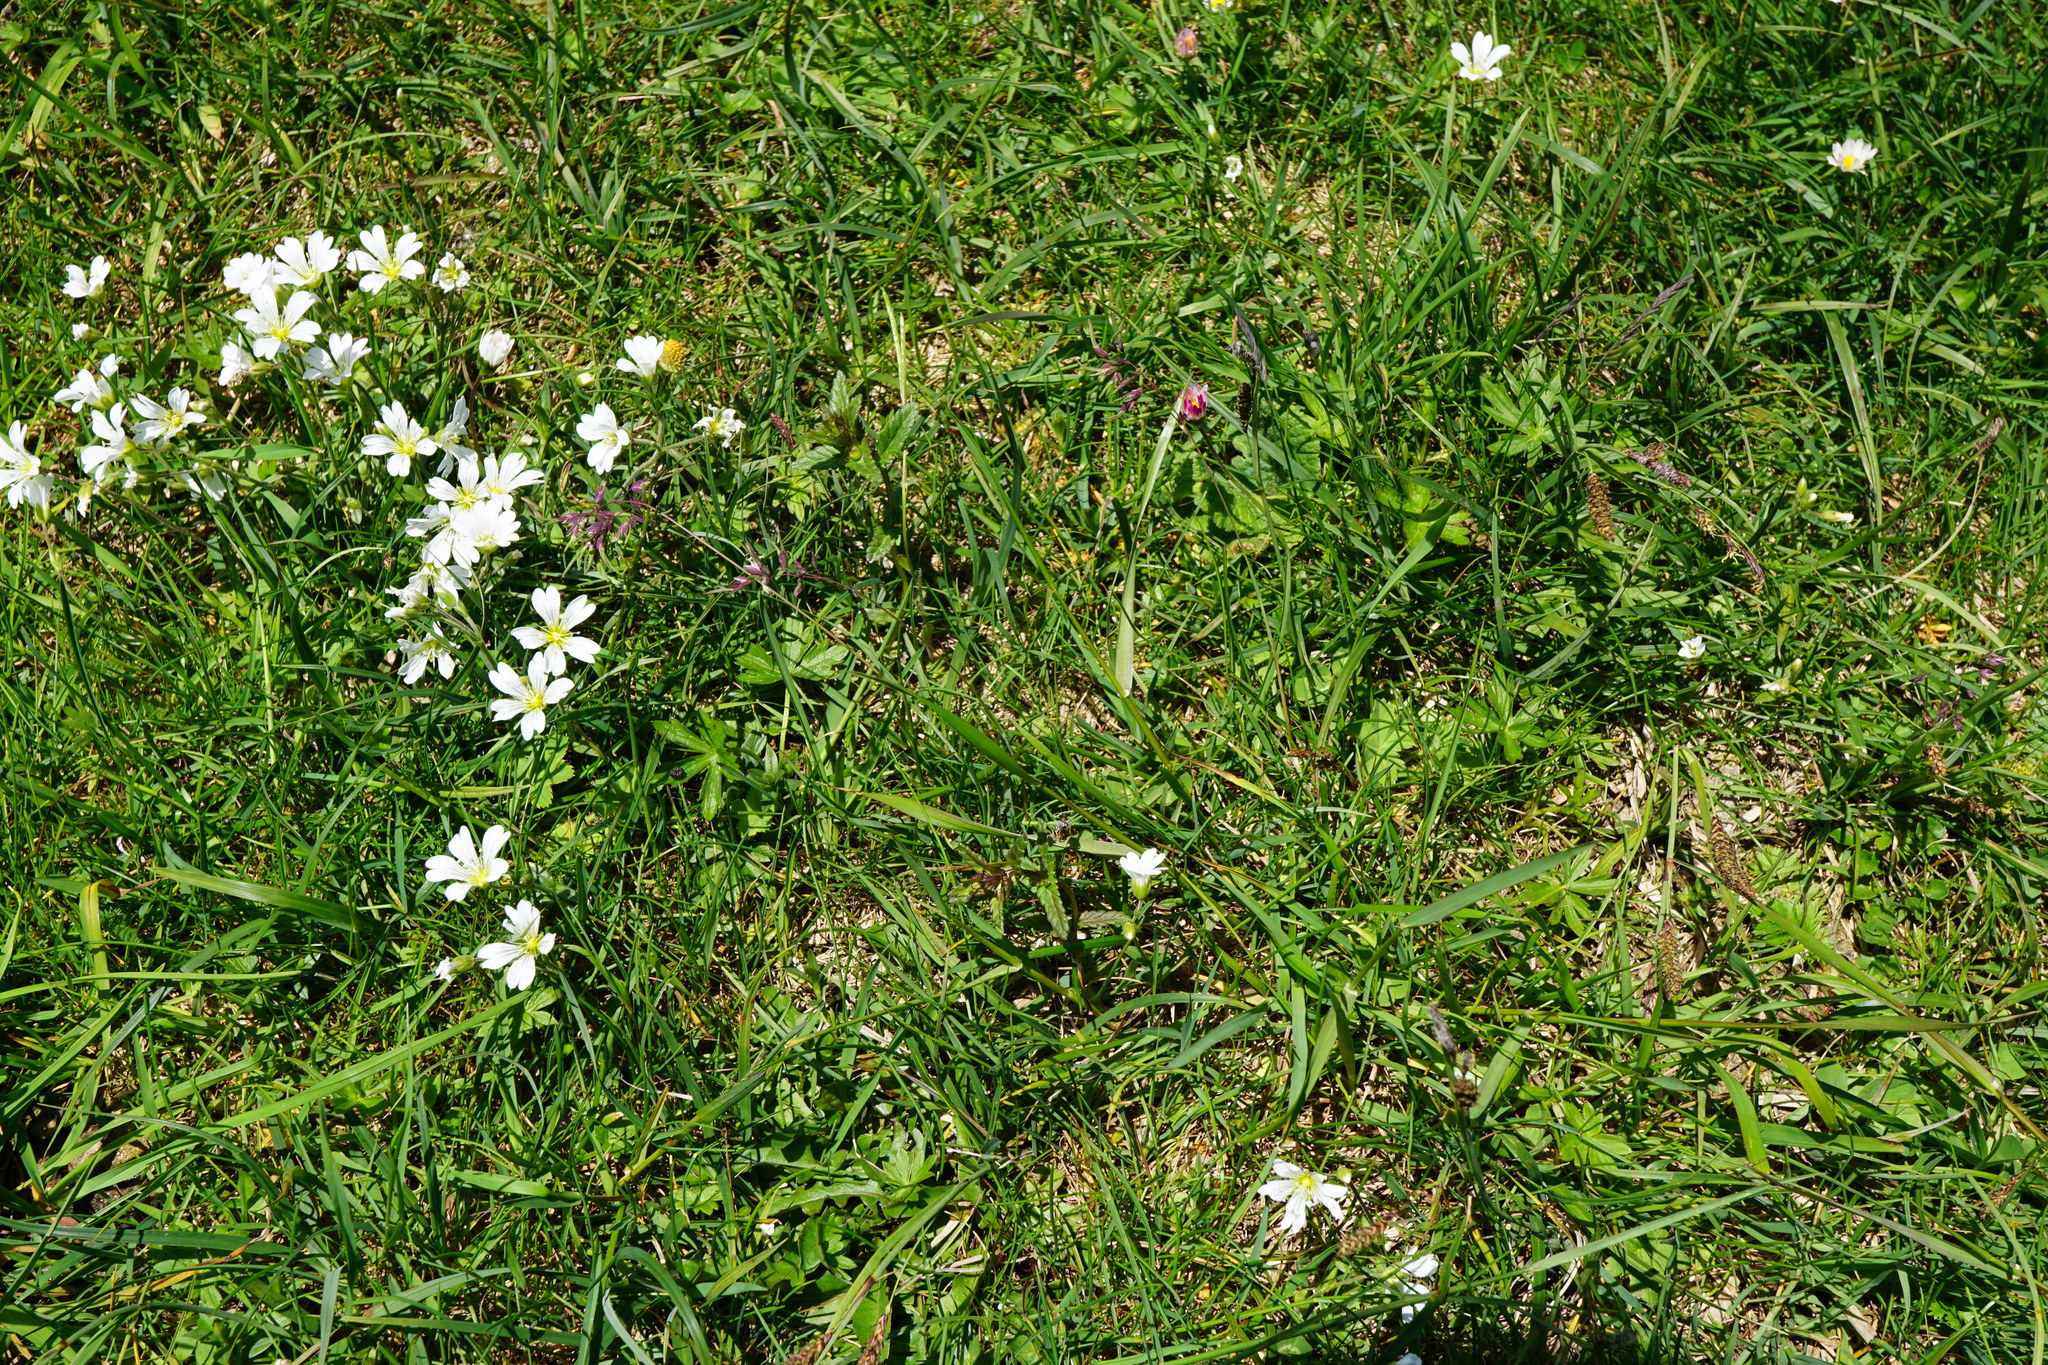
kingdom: Plantae
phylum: Tracheophyta
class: Liliopsida
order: Poales
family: Poaceae
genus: Poa
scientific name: Poa alpina
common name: Alpine bluegrass
